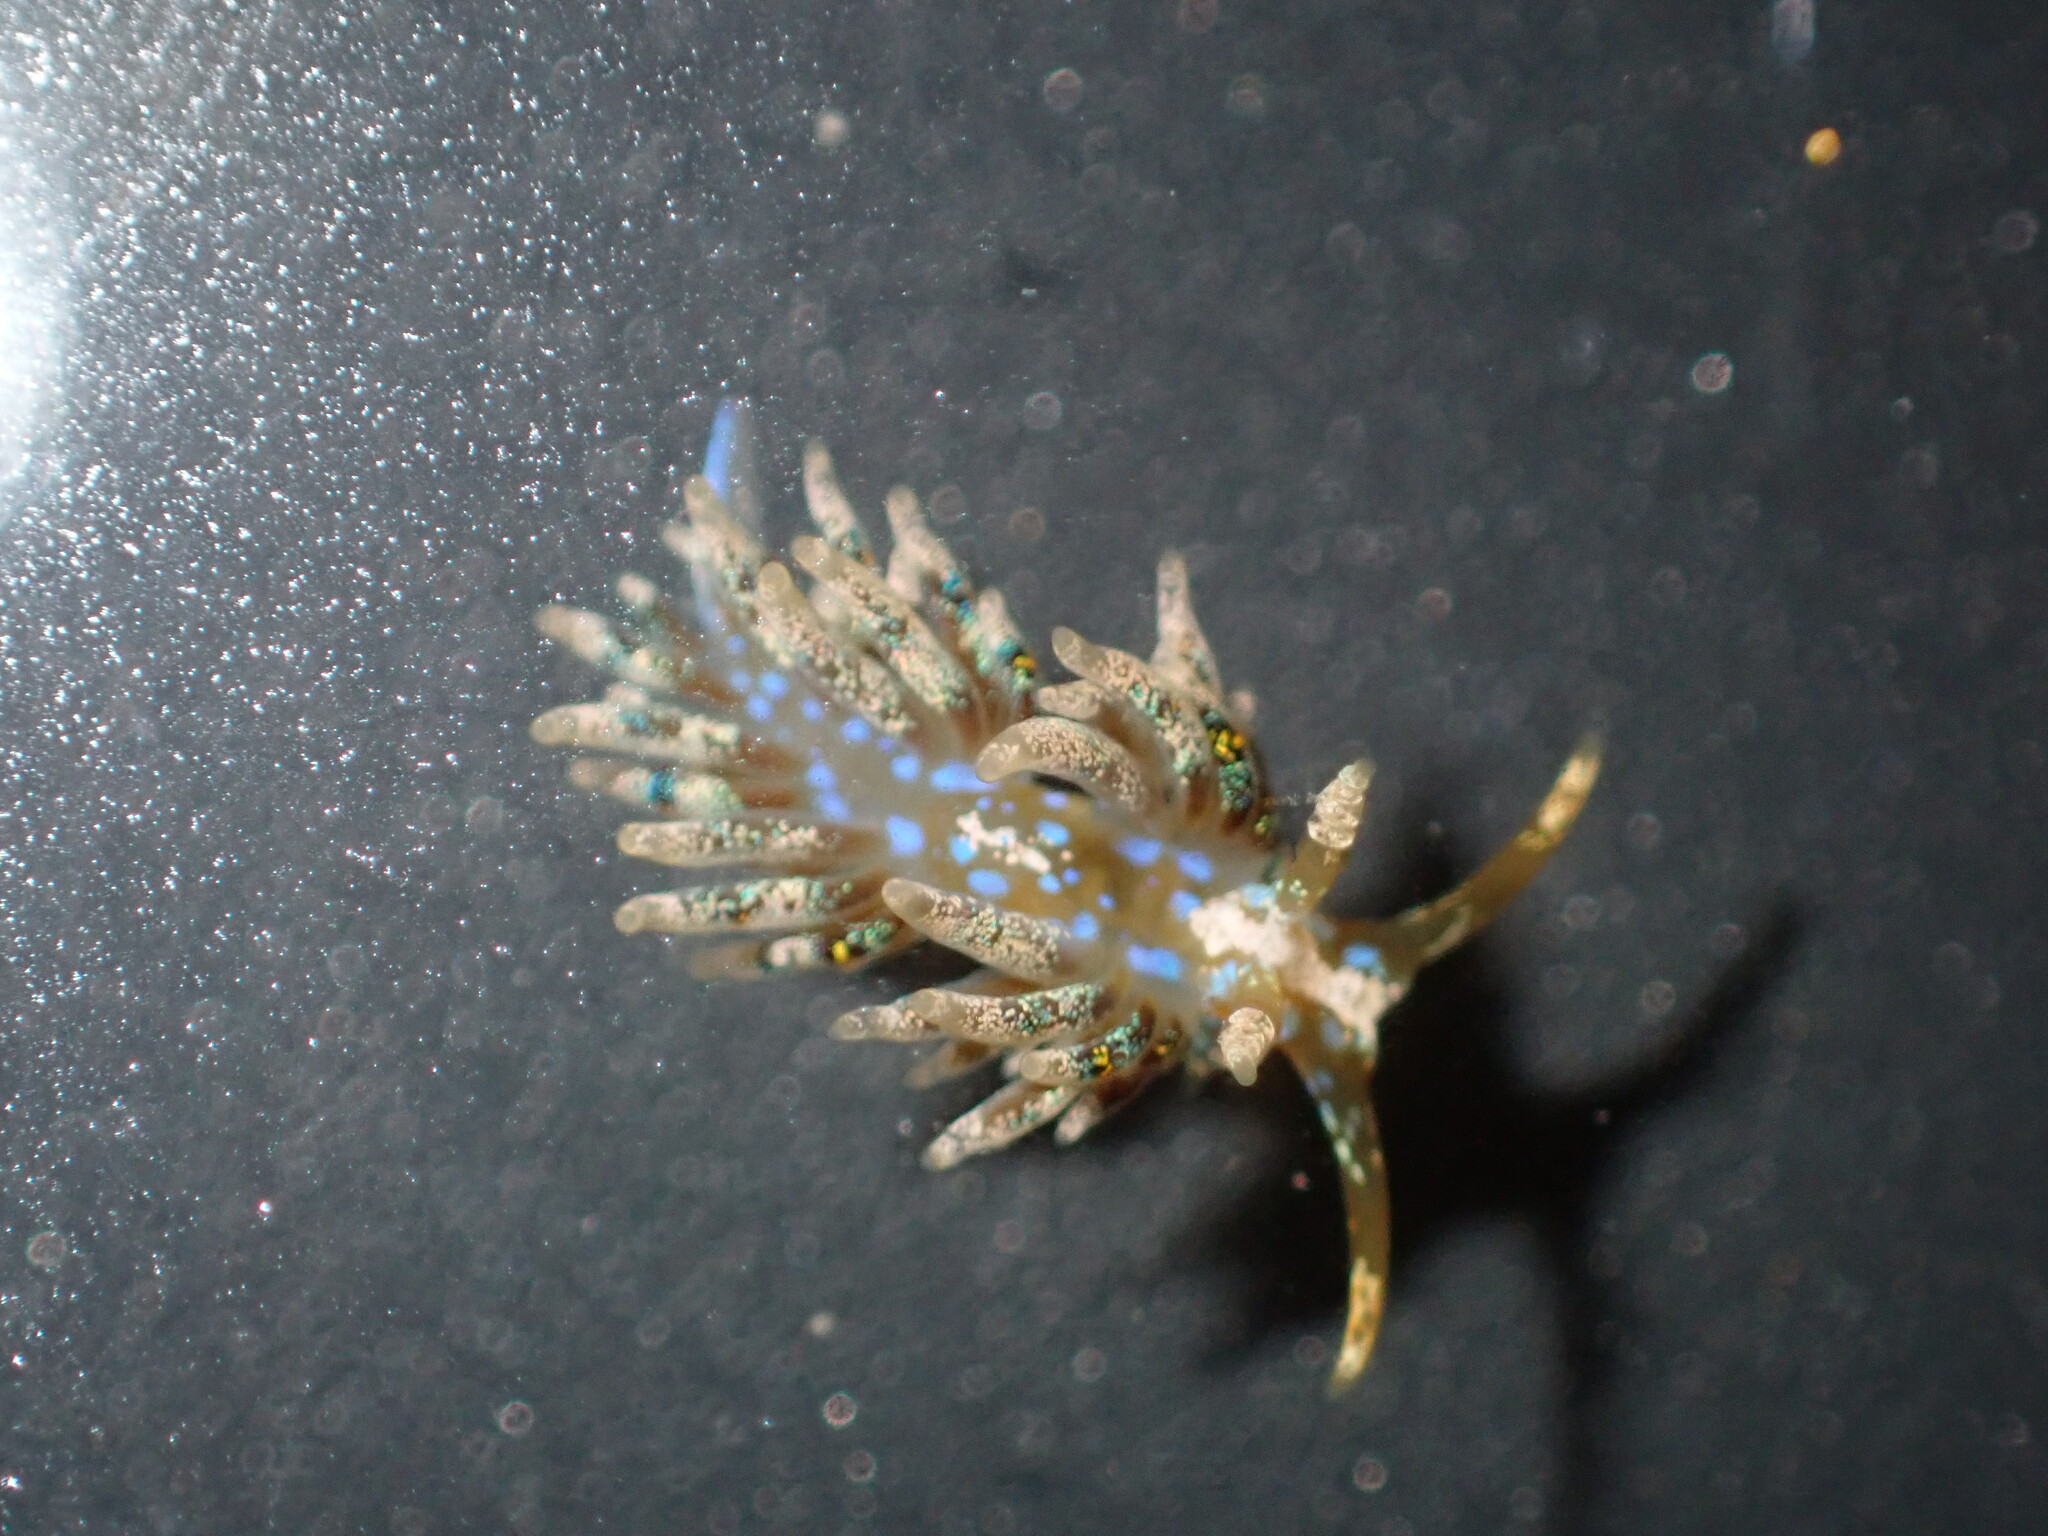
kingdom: Animalia
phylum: Mollusca
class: Gastropoda
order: Nudibranchia
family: Facelinidae
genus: Austraeolis
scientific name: Austraeolis ornata
